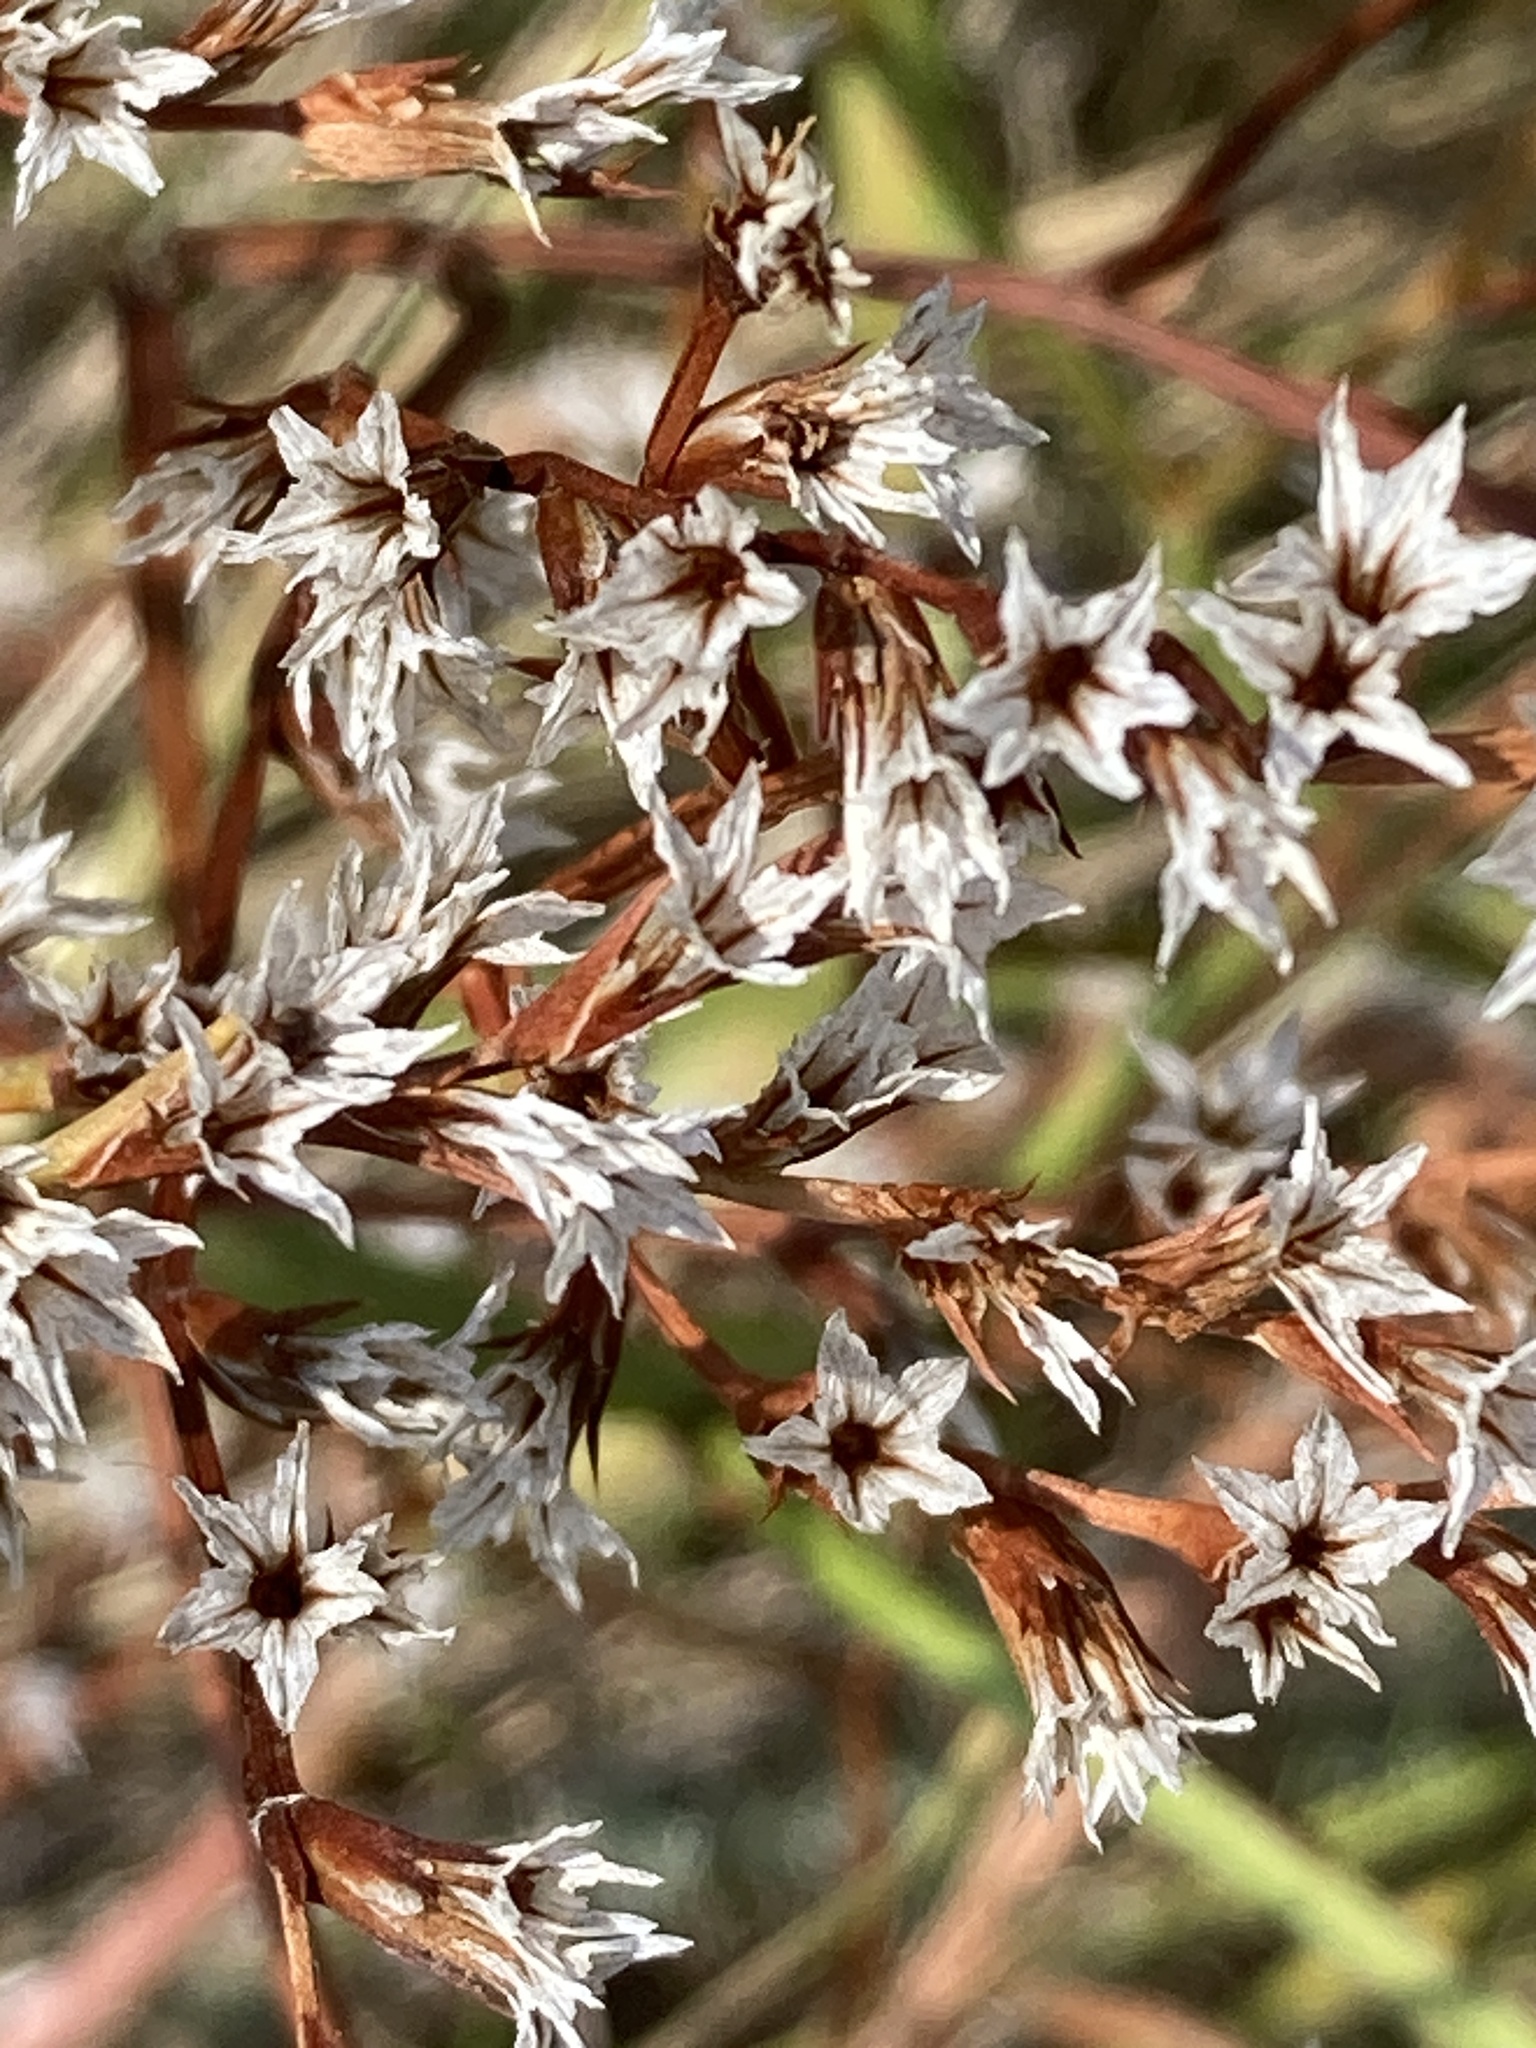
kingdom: Plantae
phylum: Tracheophyta
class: Magnoliopsida
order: Caryophyllales
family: Plumbaginaceae
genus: Goniolimon
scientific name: Goniolimon tataricum
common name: Statice
